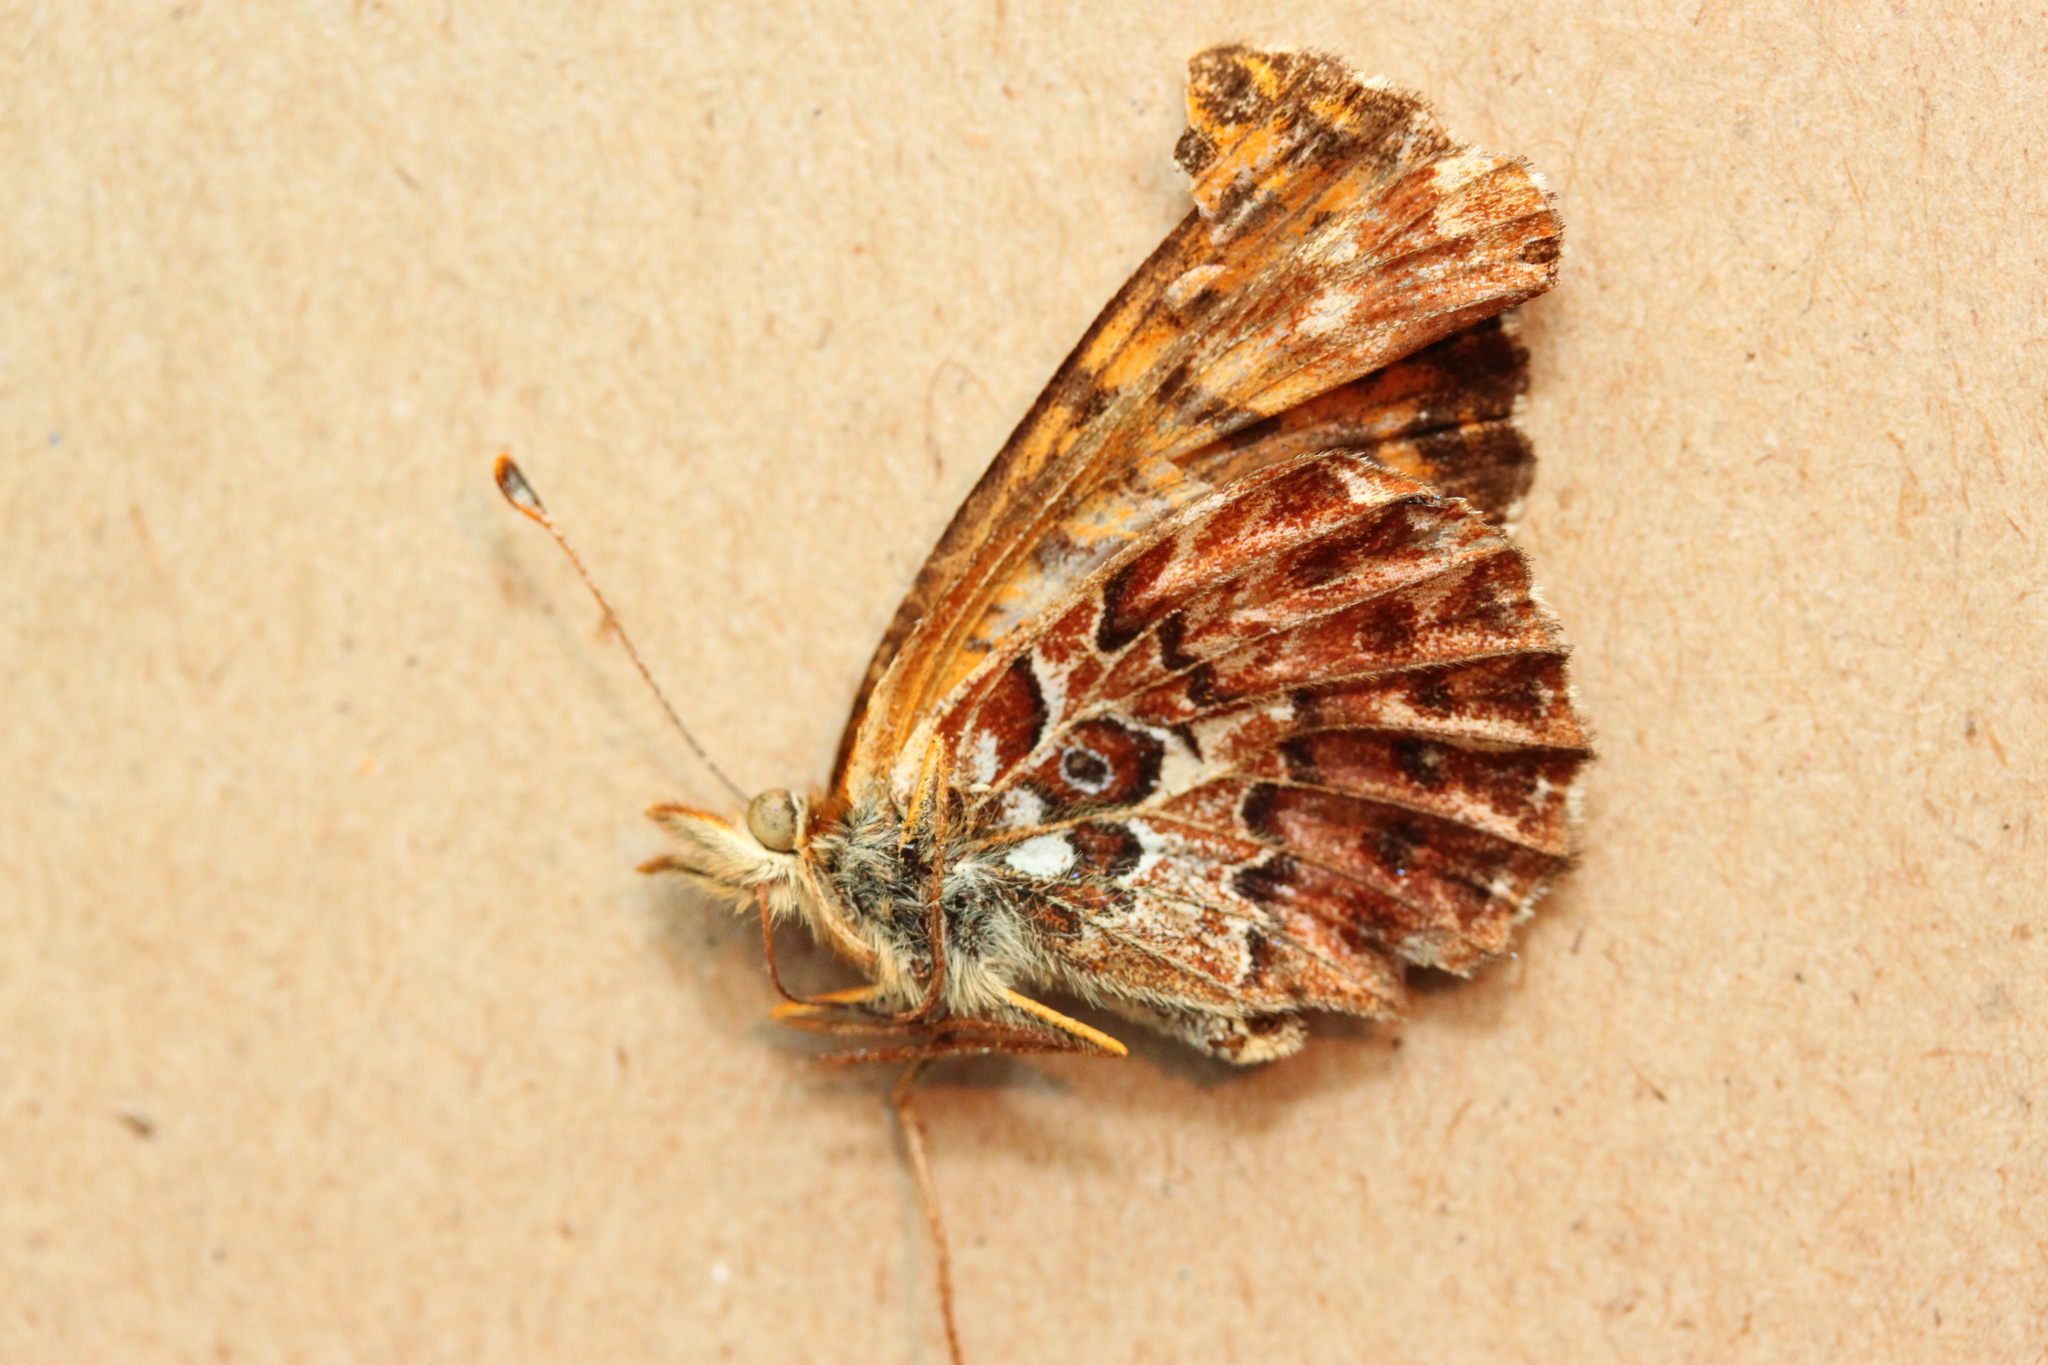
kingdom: Animalia
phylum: Arthropoda
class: Insecta
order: Lepidoptera
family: Nymphalidae
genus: Boloria
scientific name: Boloria chariclea
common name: Arctic fritillary
